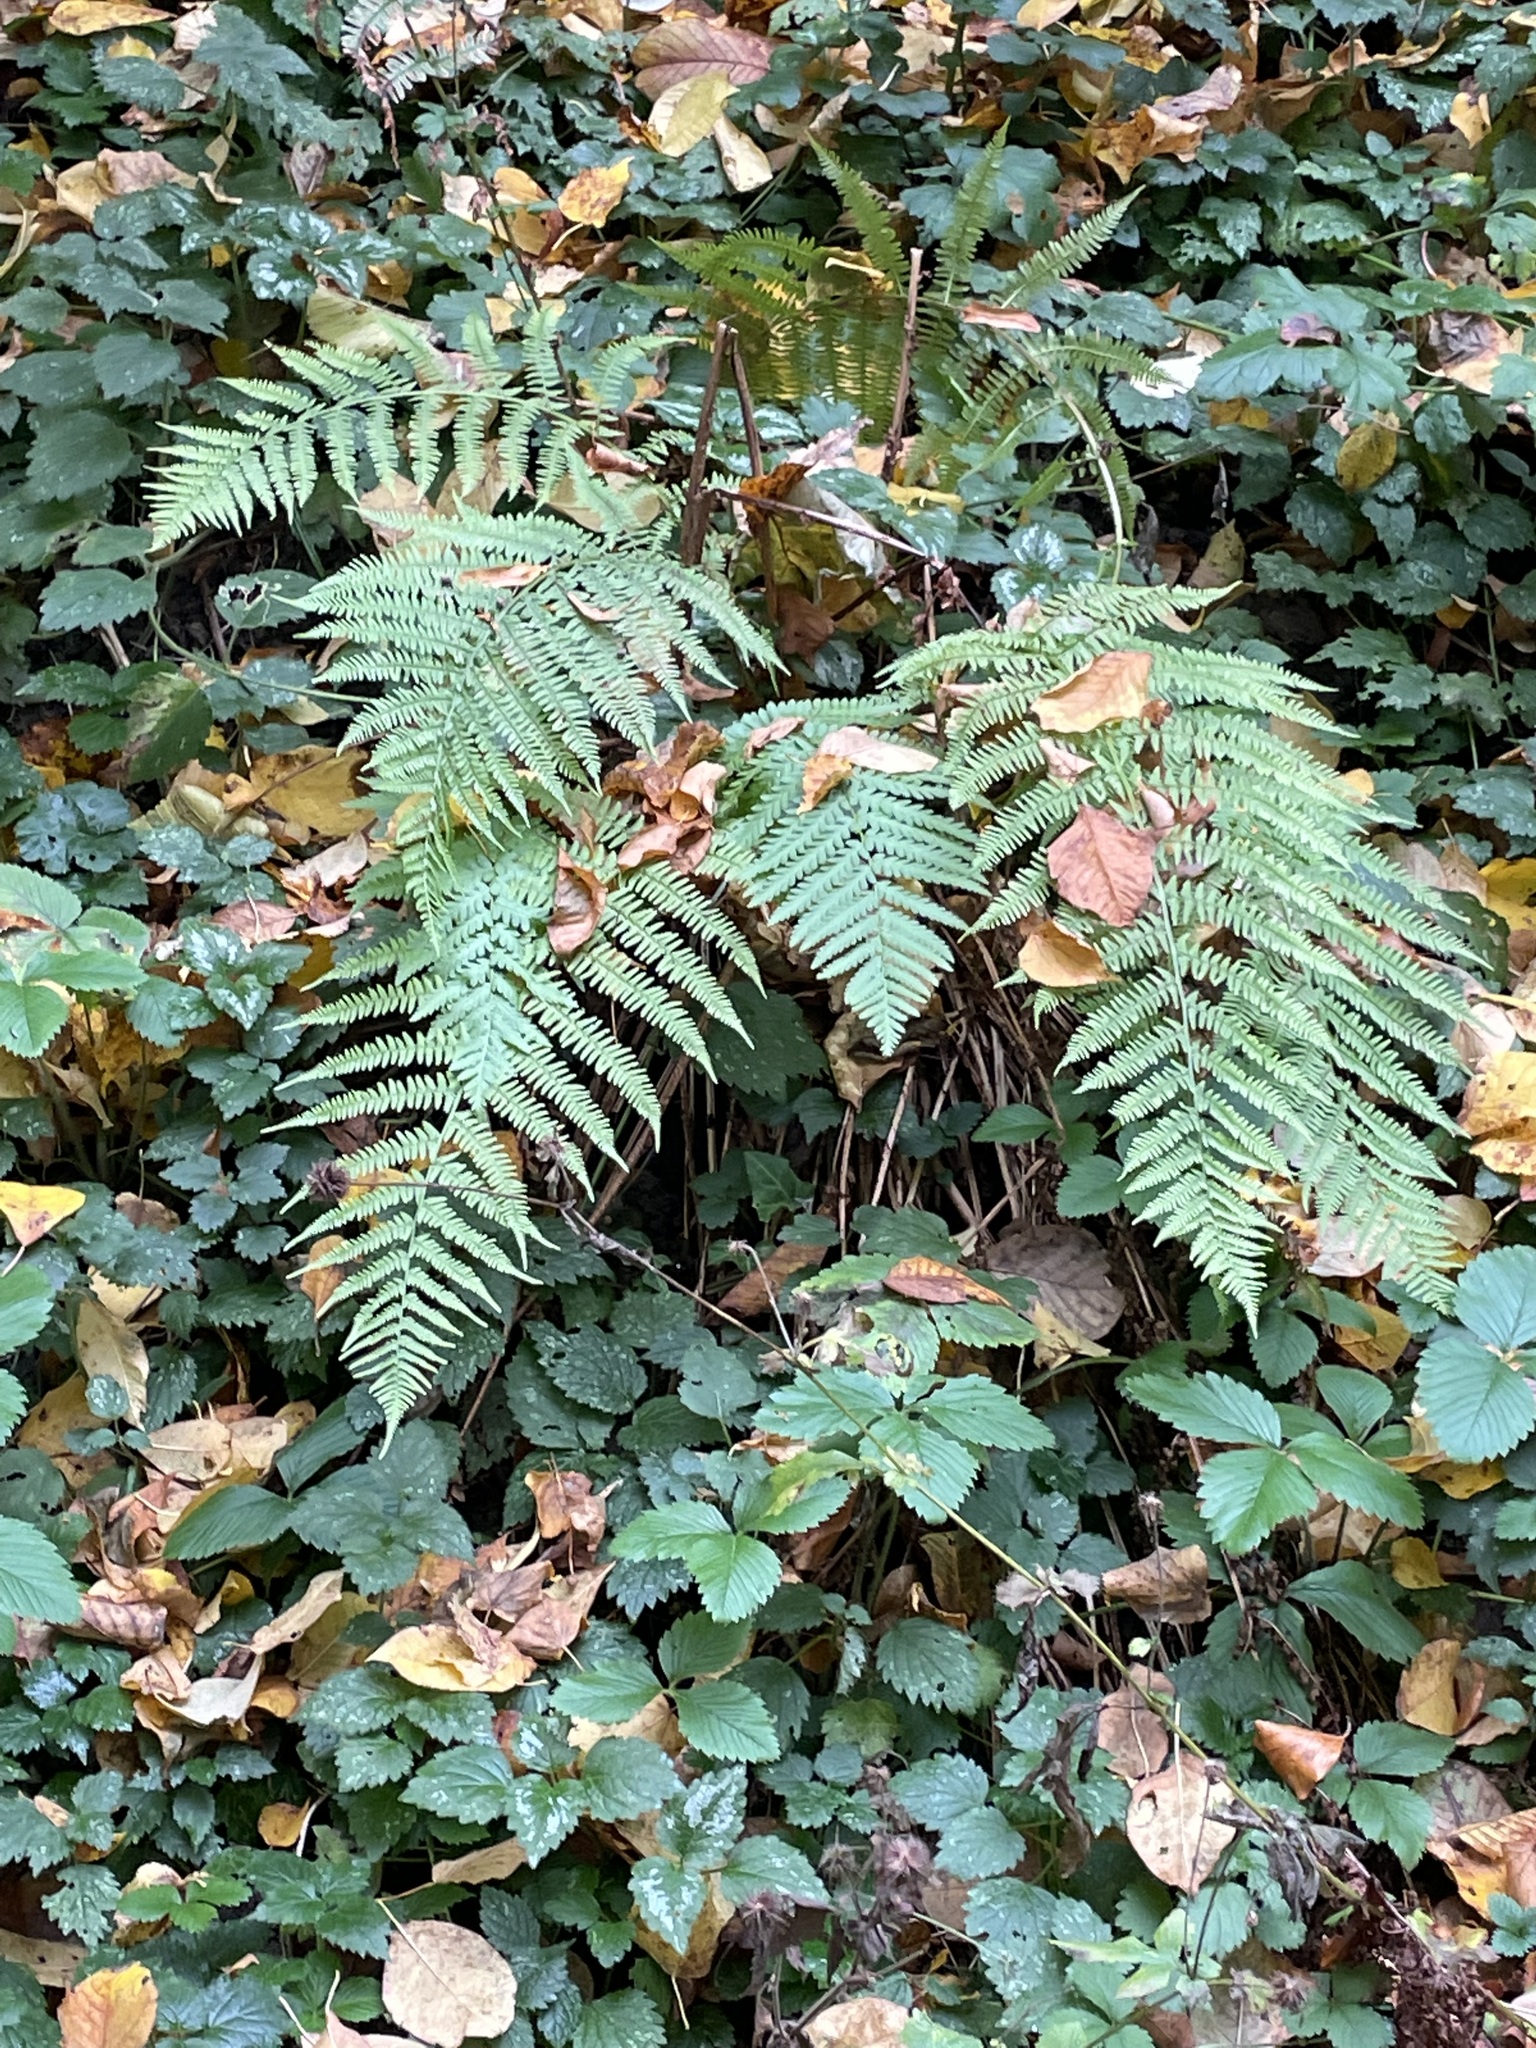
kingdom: Plantae
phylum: Tracheophyta
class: Polypodiopsida
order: Polypodiales
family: Dryopteridaceae
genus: Dryopteris
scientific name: Dryopteris filix-mas
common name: Male fern
